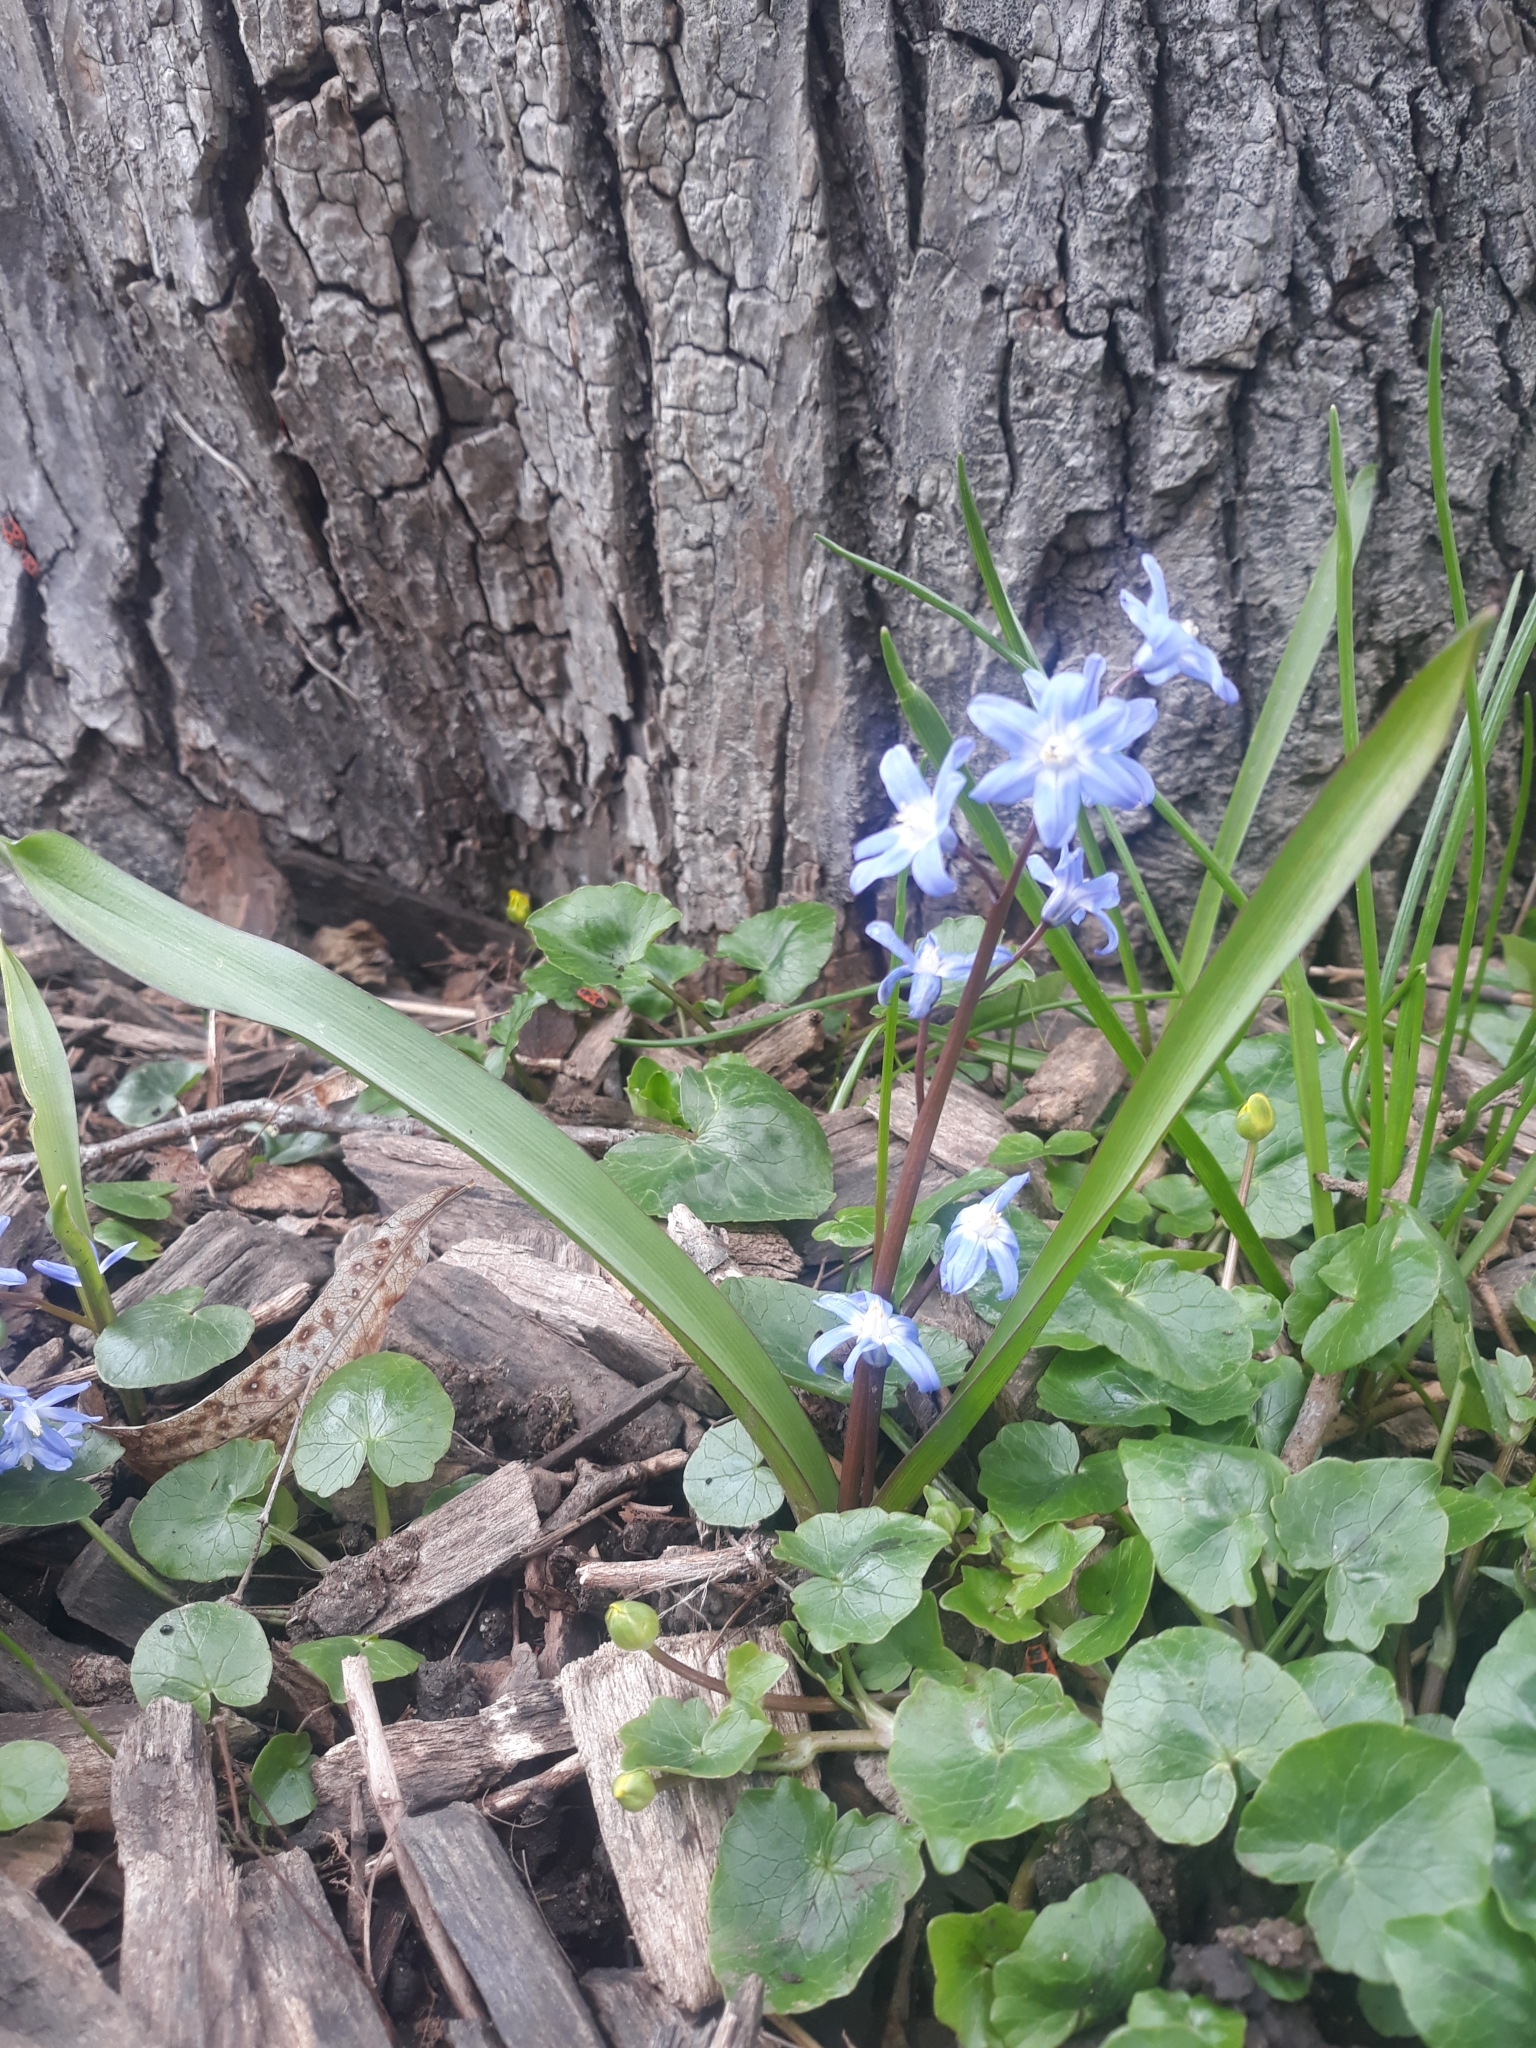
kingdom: Plantae
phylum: Tracheophyta
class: Liliopsida
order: Asparagales
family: Asparagaceae
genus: Scilla
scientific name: Scilla forbesii
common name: Glory-of-the-snow
